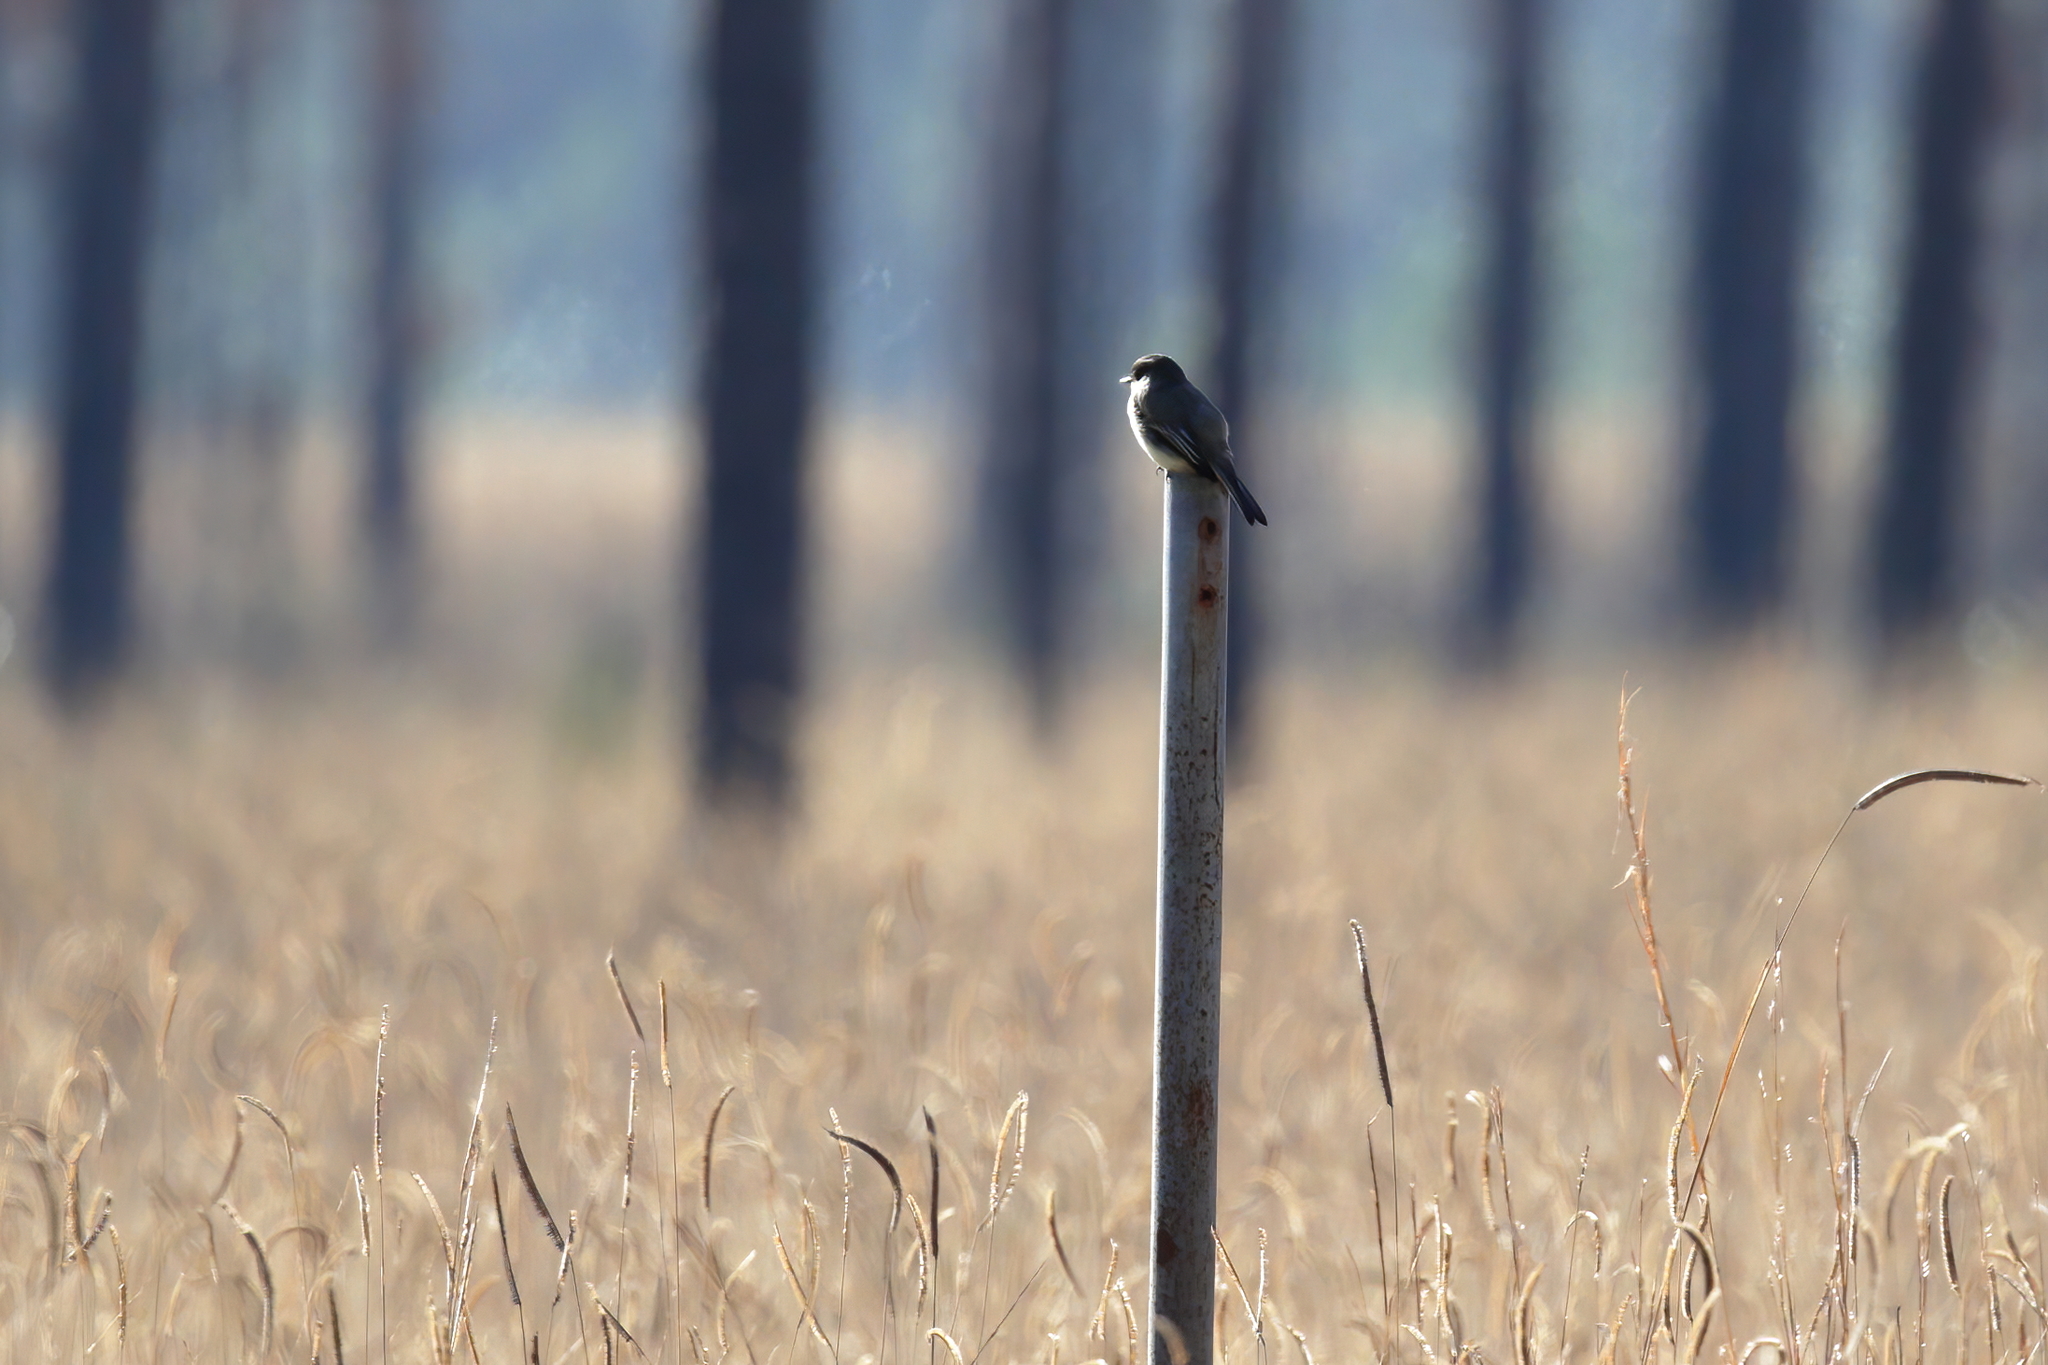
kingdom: Animalia
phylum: Chordata
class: Aves
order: Passeriformes
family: Tyrannidae
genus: Sayornis
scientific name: Sayornis phoebe
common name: Eastern phoebe
